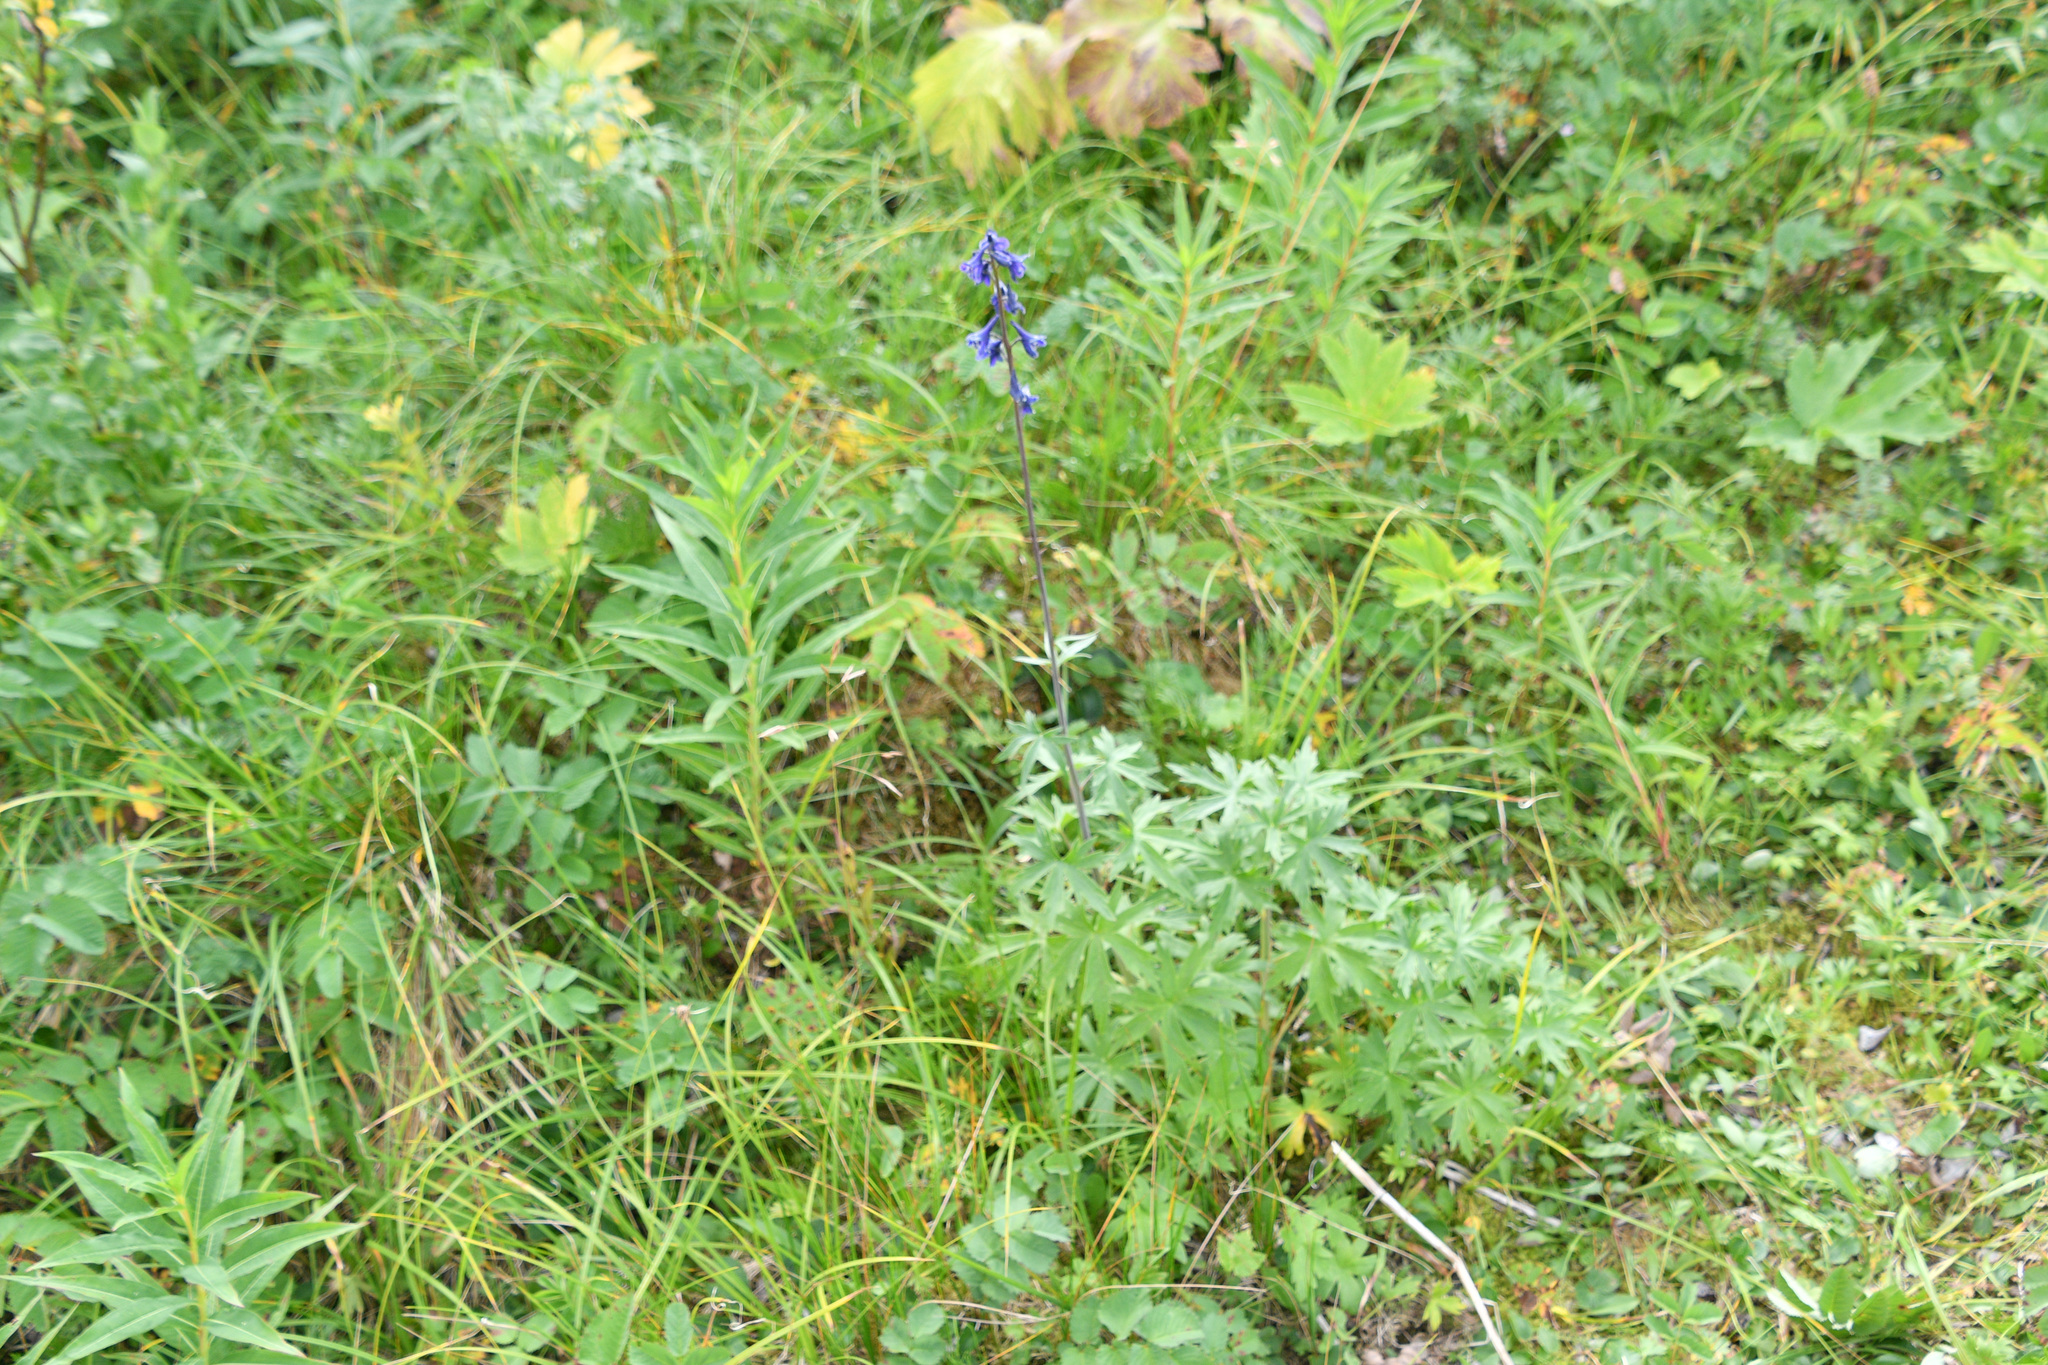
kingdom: Plantae
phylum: Tracheophyta
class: Magnoliopsida
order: Ranunculales
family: Ranunculaceae
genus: Delphinium
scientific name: Delphinium glaucum
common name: Brown's larkspur
